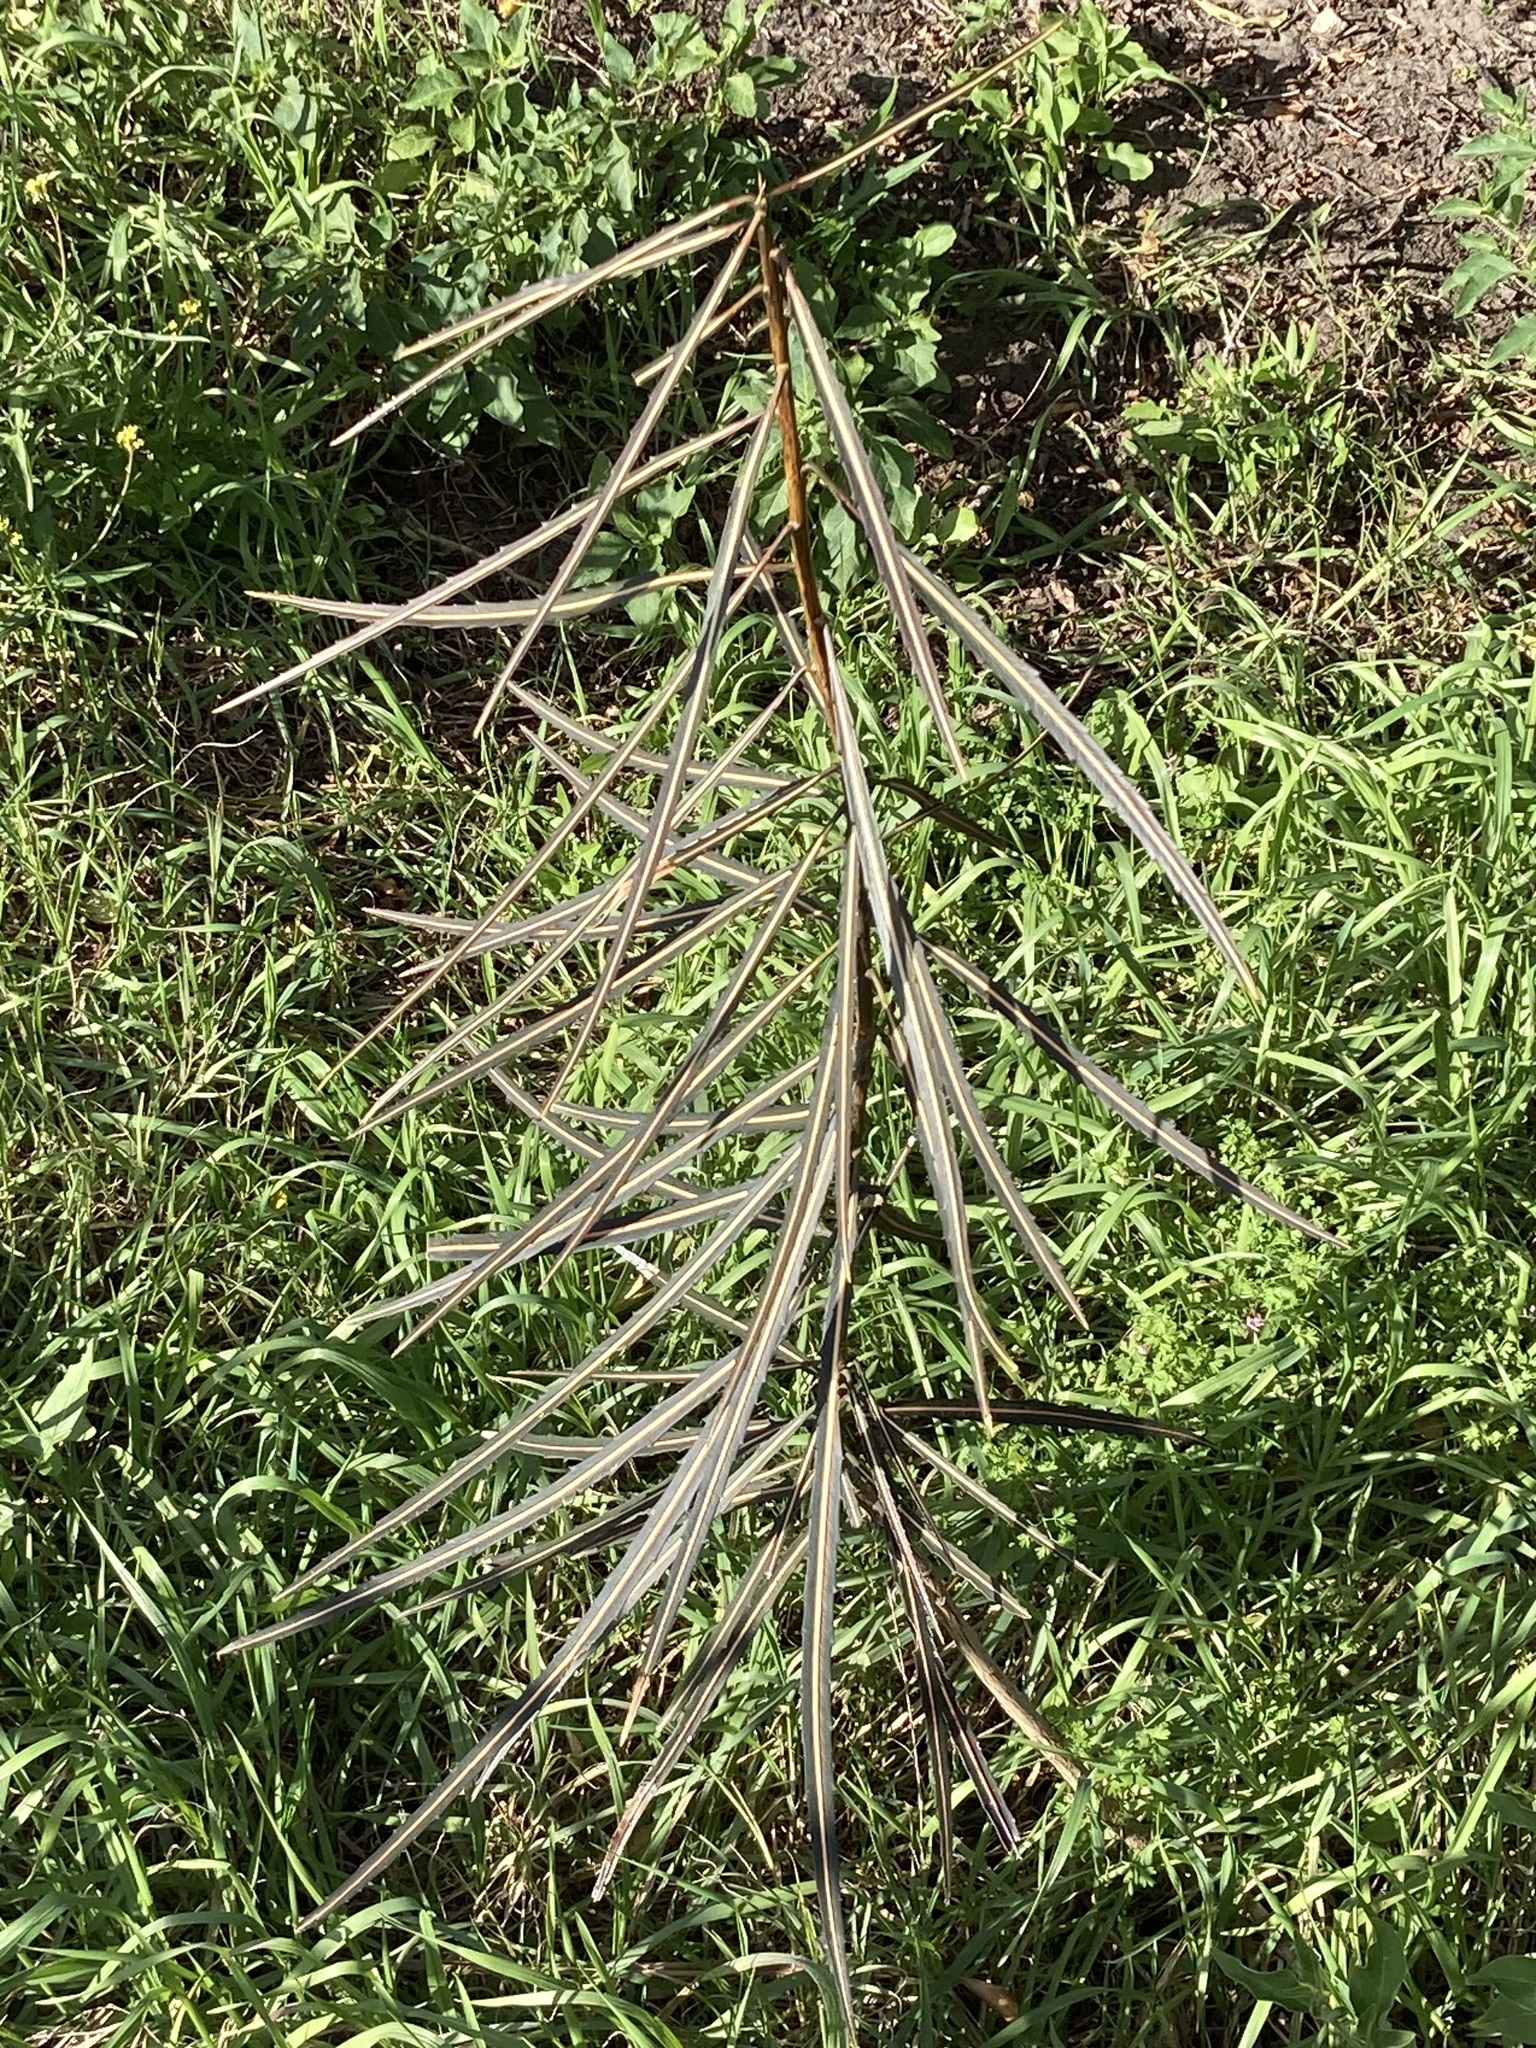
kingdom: Plantae
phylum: Tracheophyta
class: Magnoliopsida
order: Apiales
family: Araliaceae
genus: Pseudopanax
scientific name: Pseudopanax crassifolius
